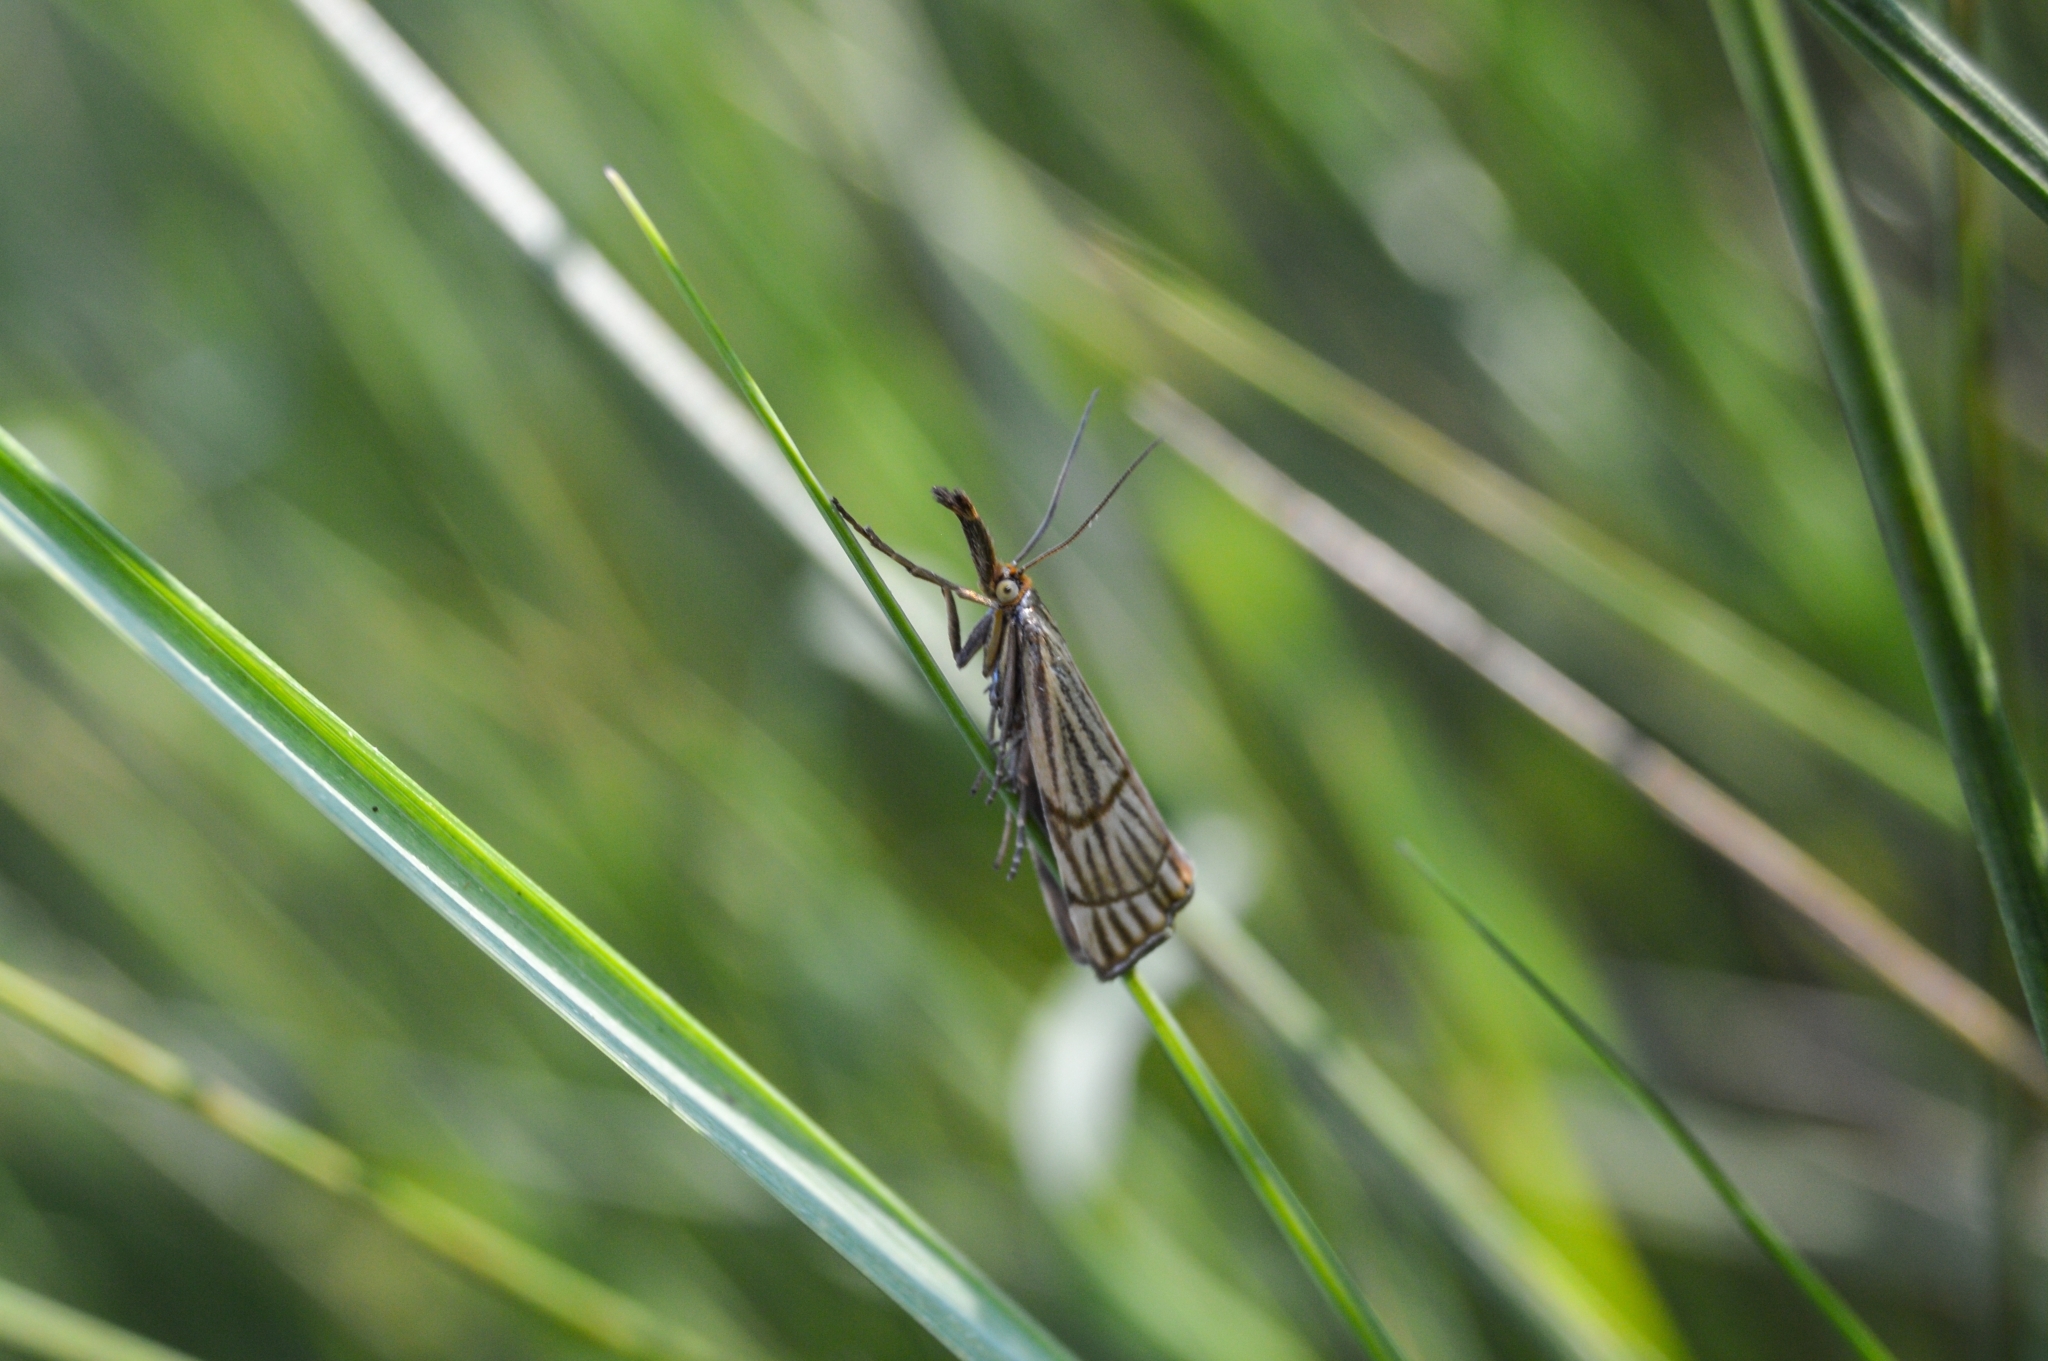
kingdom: Animalia
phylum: Arthropoda
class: Insecta
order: Lepidoptera
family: Crambidae
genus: Chrysocrambus
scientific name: Chrysocrambus linetella
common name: Orange-bar grass-veneer
